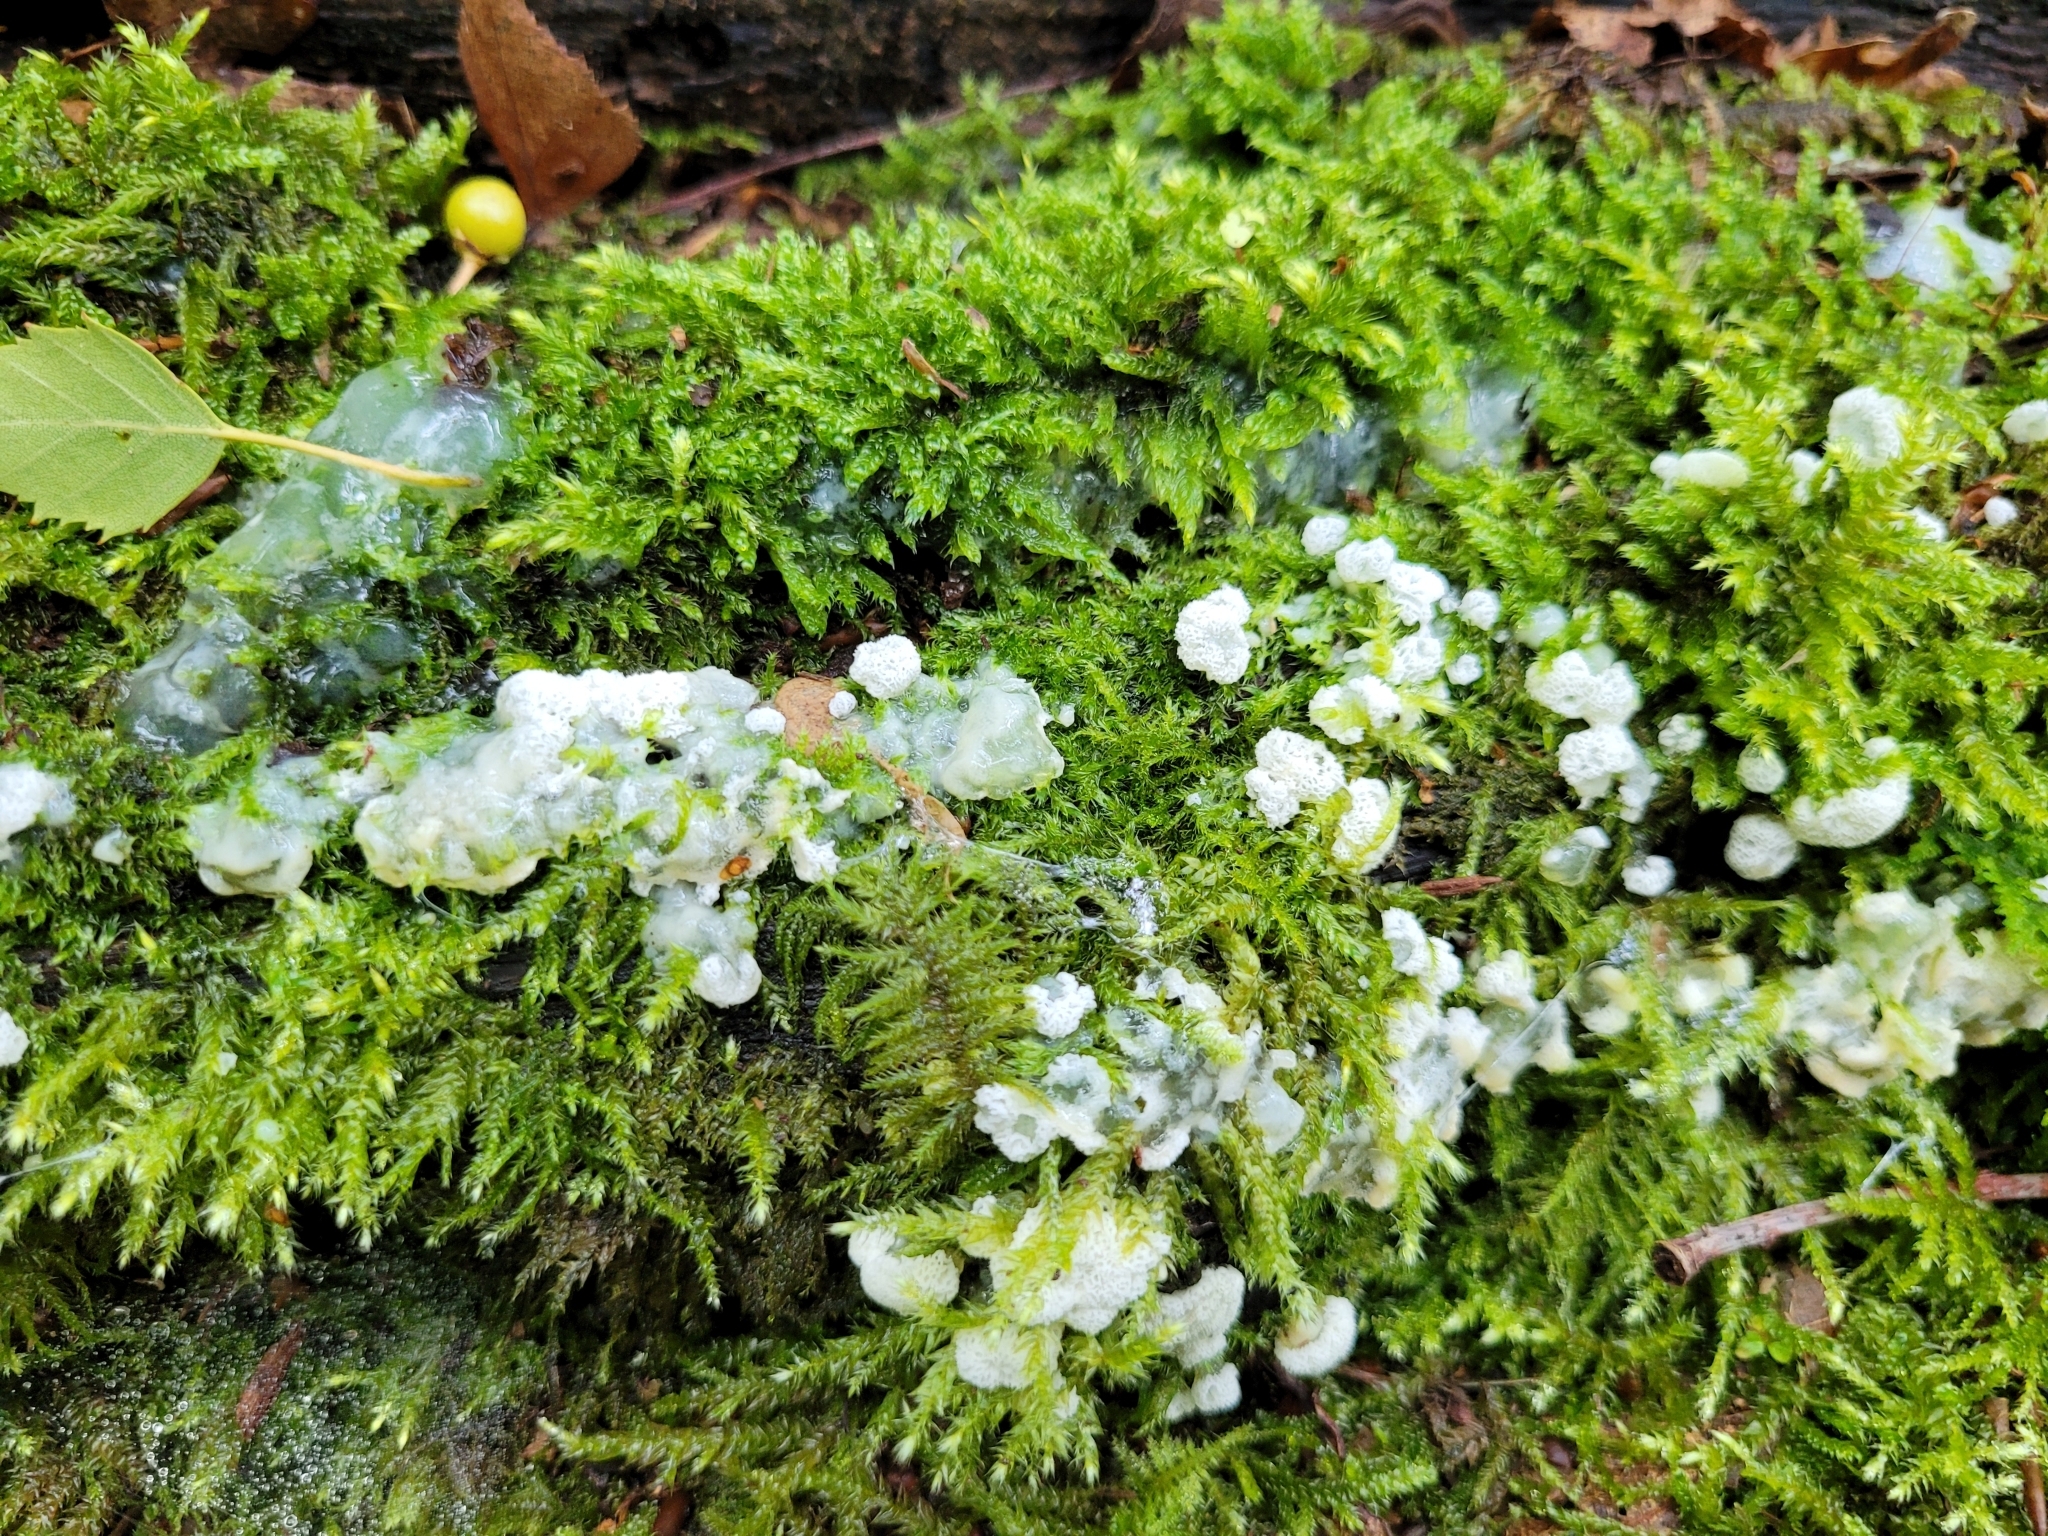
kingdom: Protozoa
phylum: Mycetozoa
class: Protosteliomycetes
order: Ceratiomyxales
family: Ceratiomyxaceae
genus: Ceratiomyxa
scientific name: Ceratiomyxa fruticulosa
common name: Honeycomb coral slime mold
